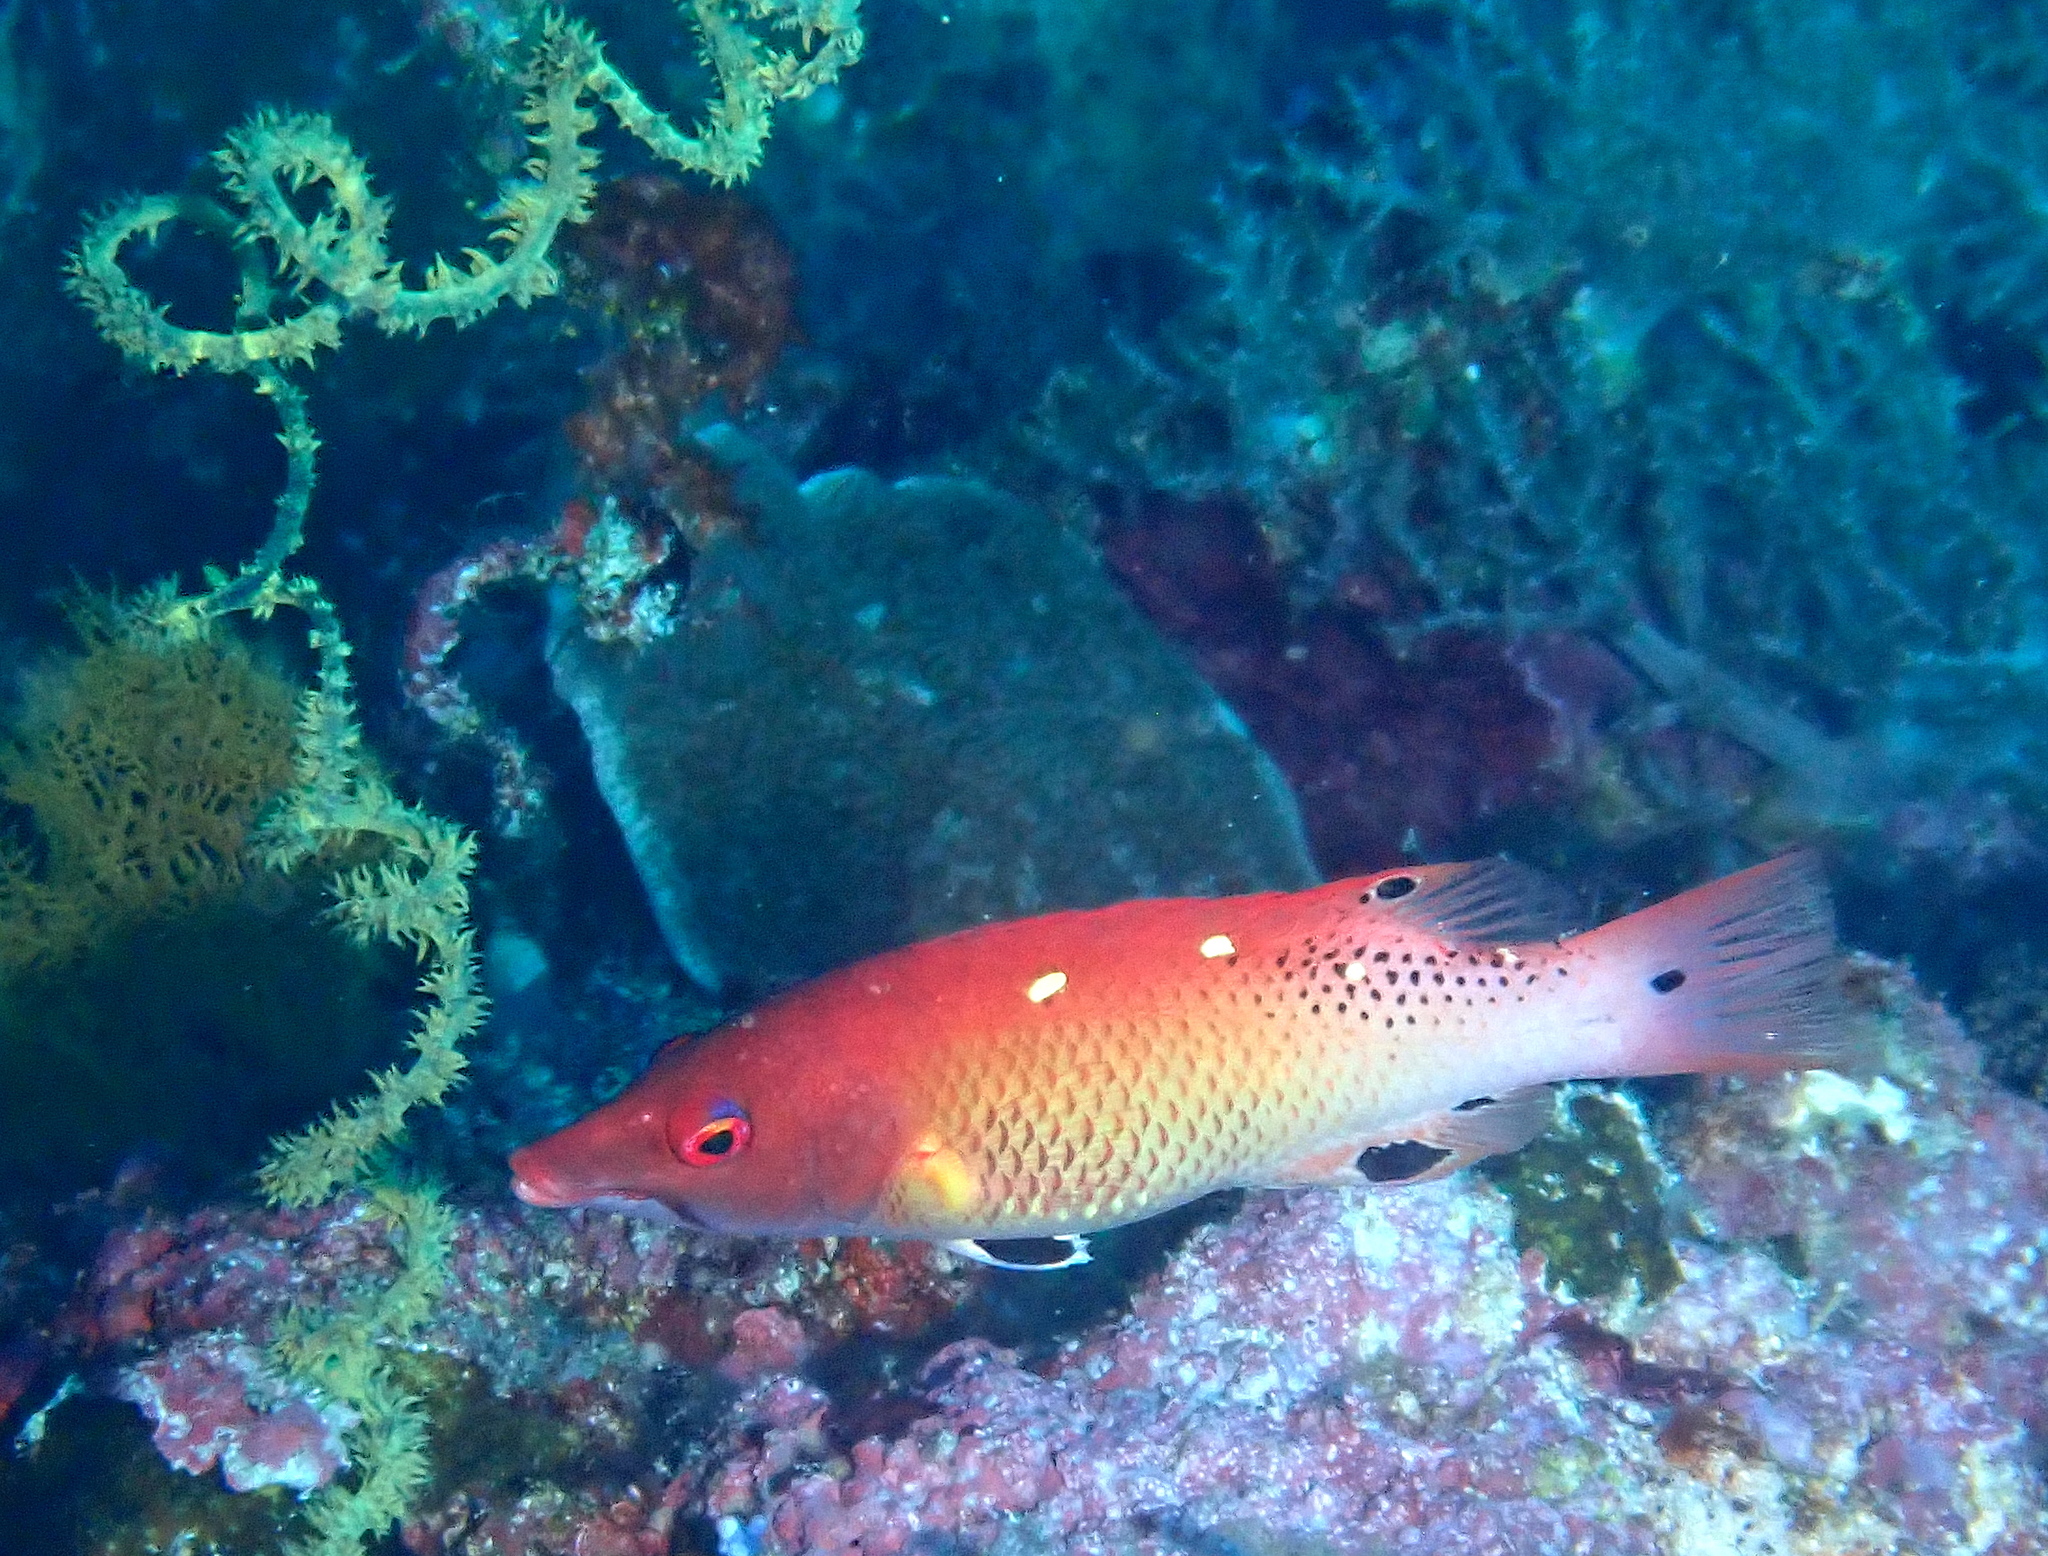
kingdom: Animalia
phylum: Chordata
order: Perciformes
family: Labridae
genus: Bodianus
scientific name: Bodianus dictynna
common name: Diana's hogfish
